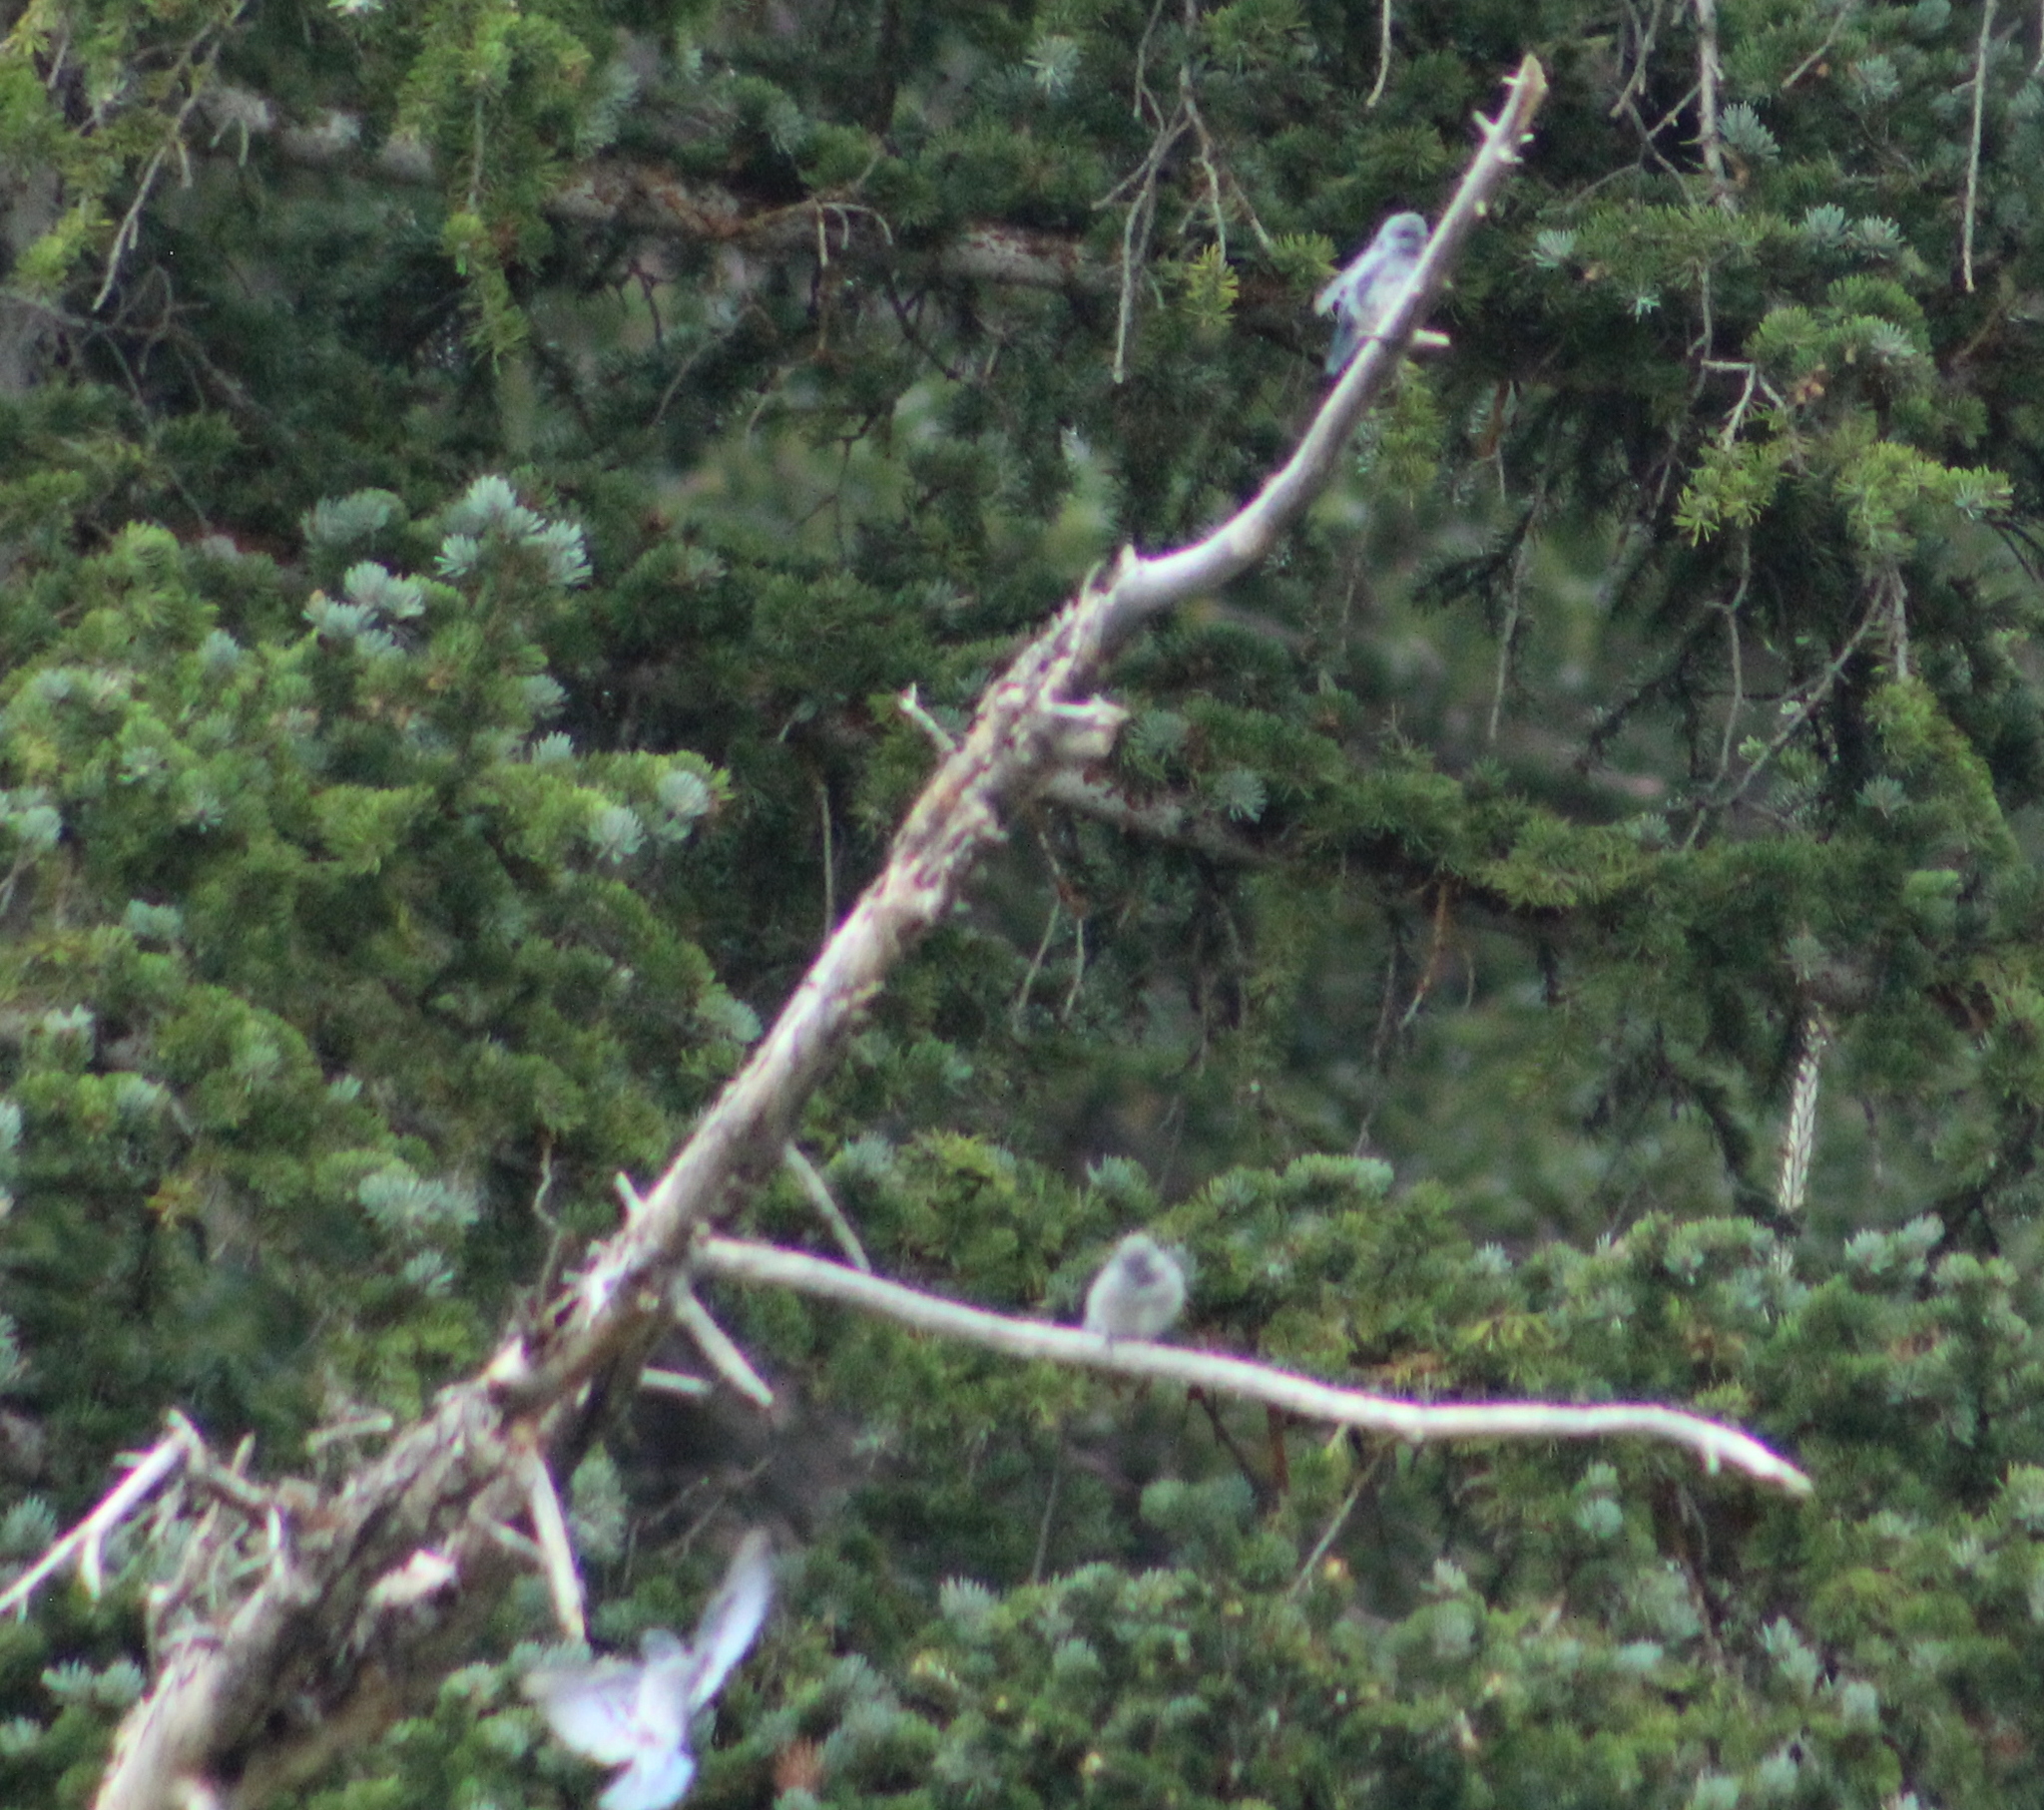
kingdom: Animalia
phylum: Chordata
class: Aves
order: Passeriformes
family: Turdidae
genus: Sialia
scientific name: Sialia currucoides
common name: Mountain bluebird
